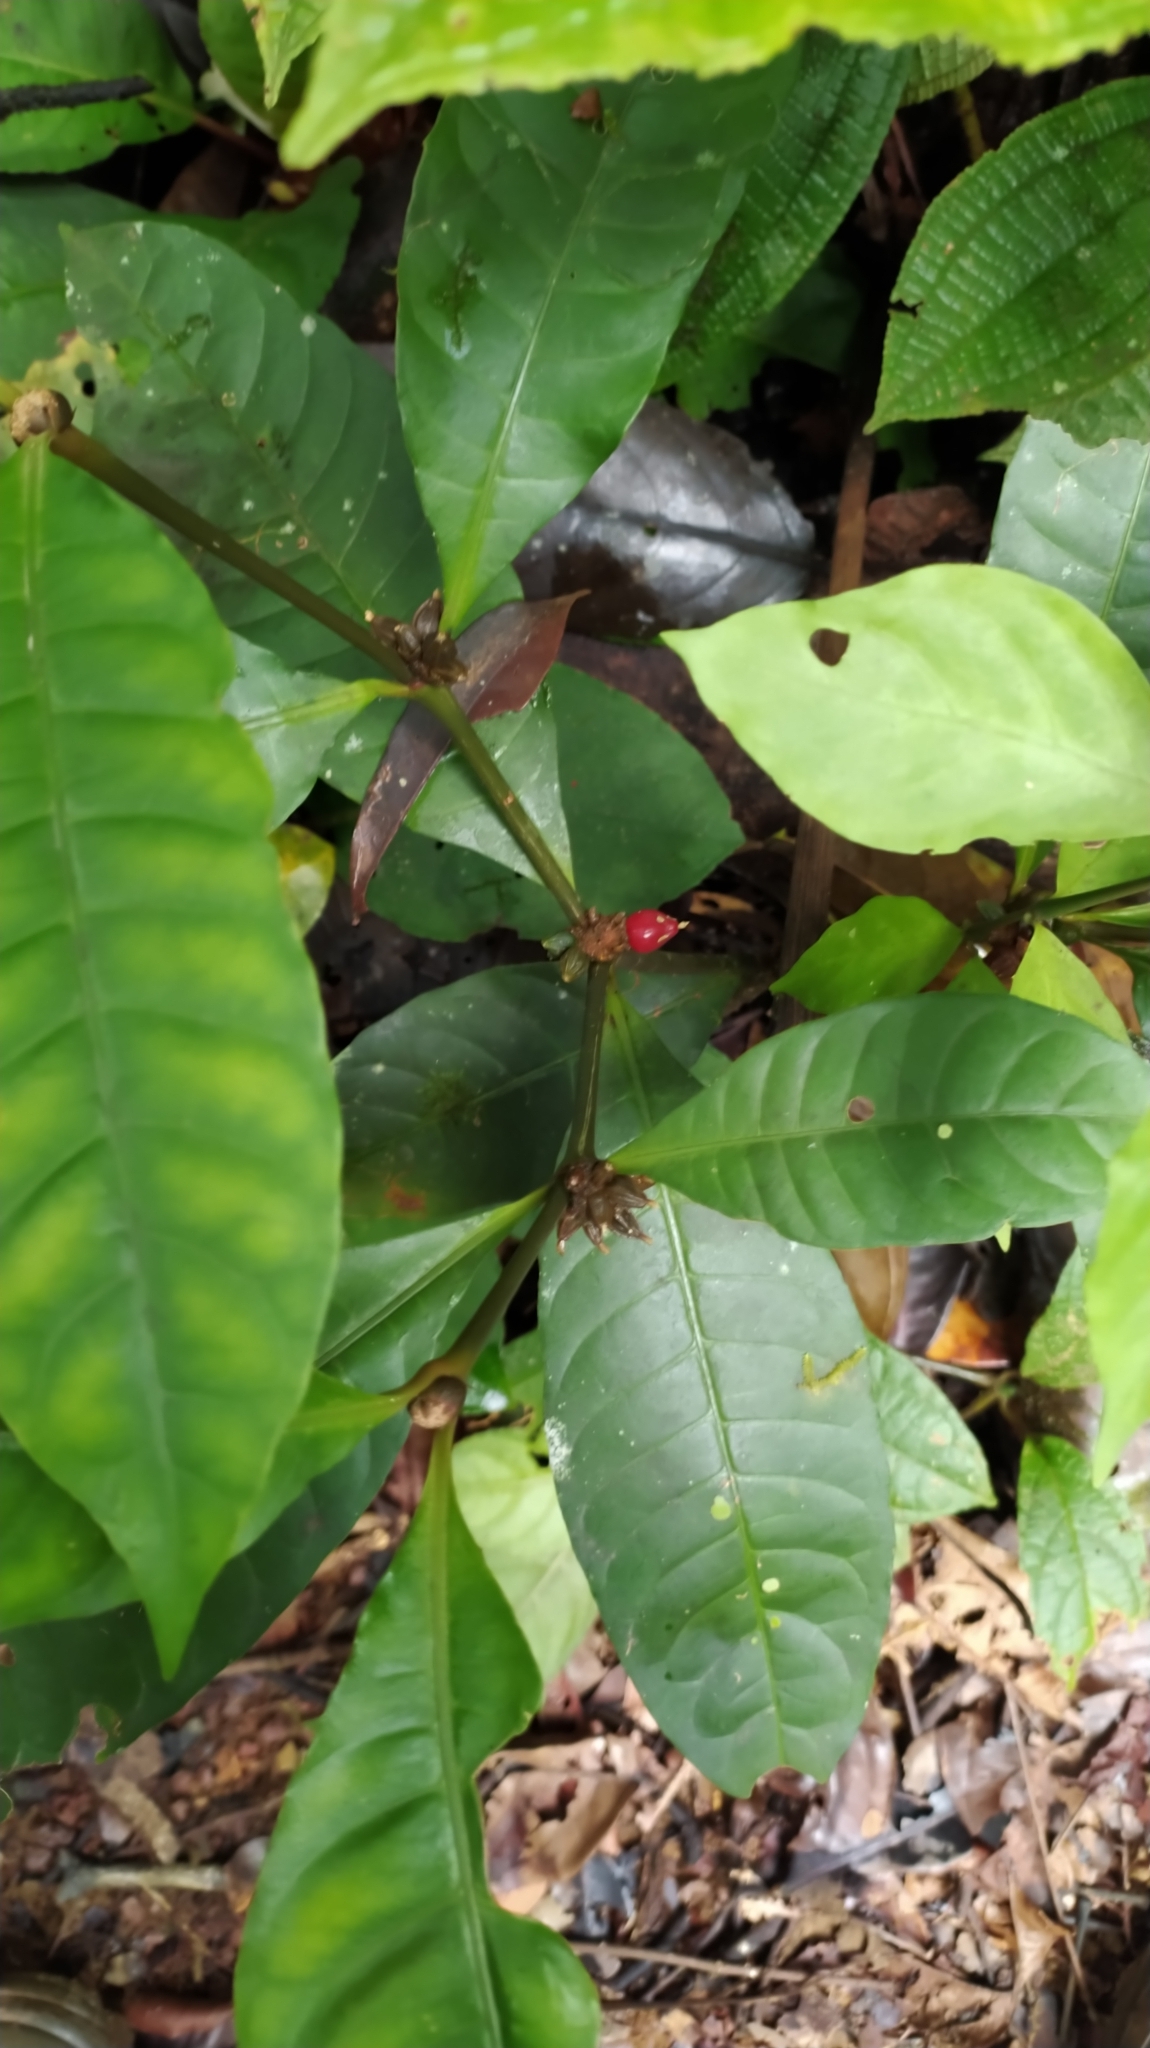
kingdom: Plantae
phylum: Tracheophyta
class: Magnoliopsida
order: Gentianales
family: Rubiaceae
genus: Eumachia
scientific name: Eumachia kappleri
